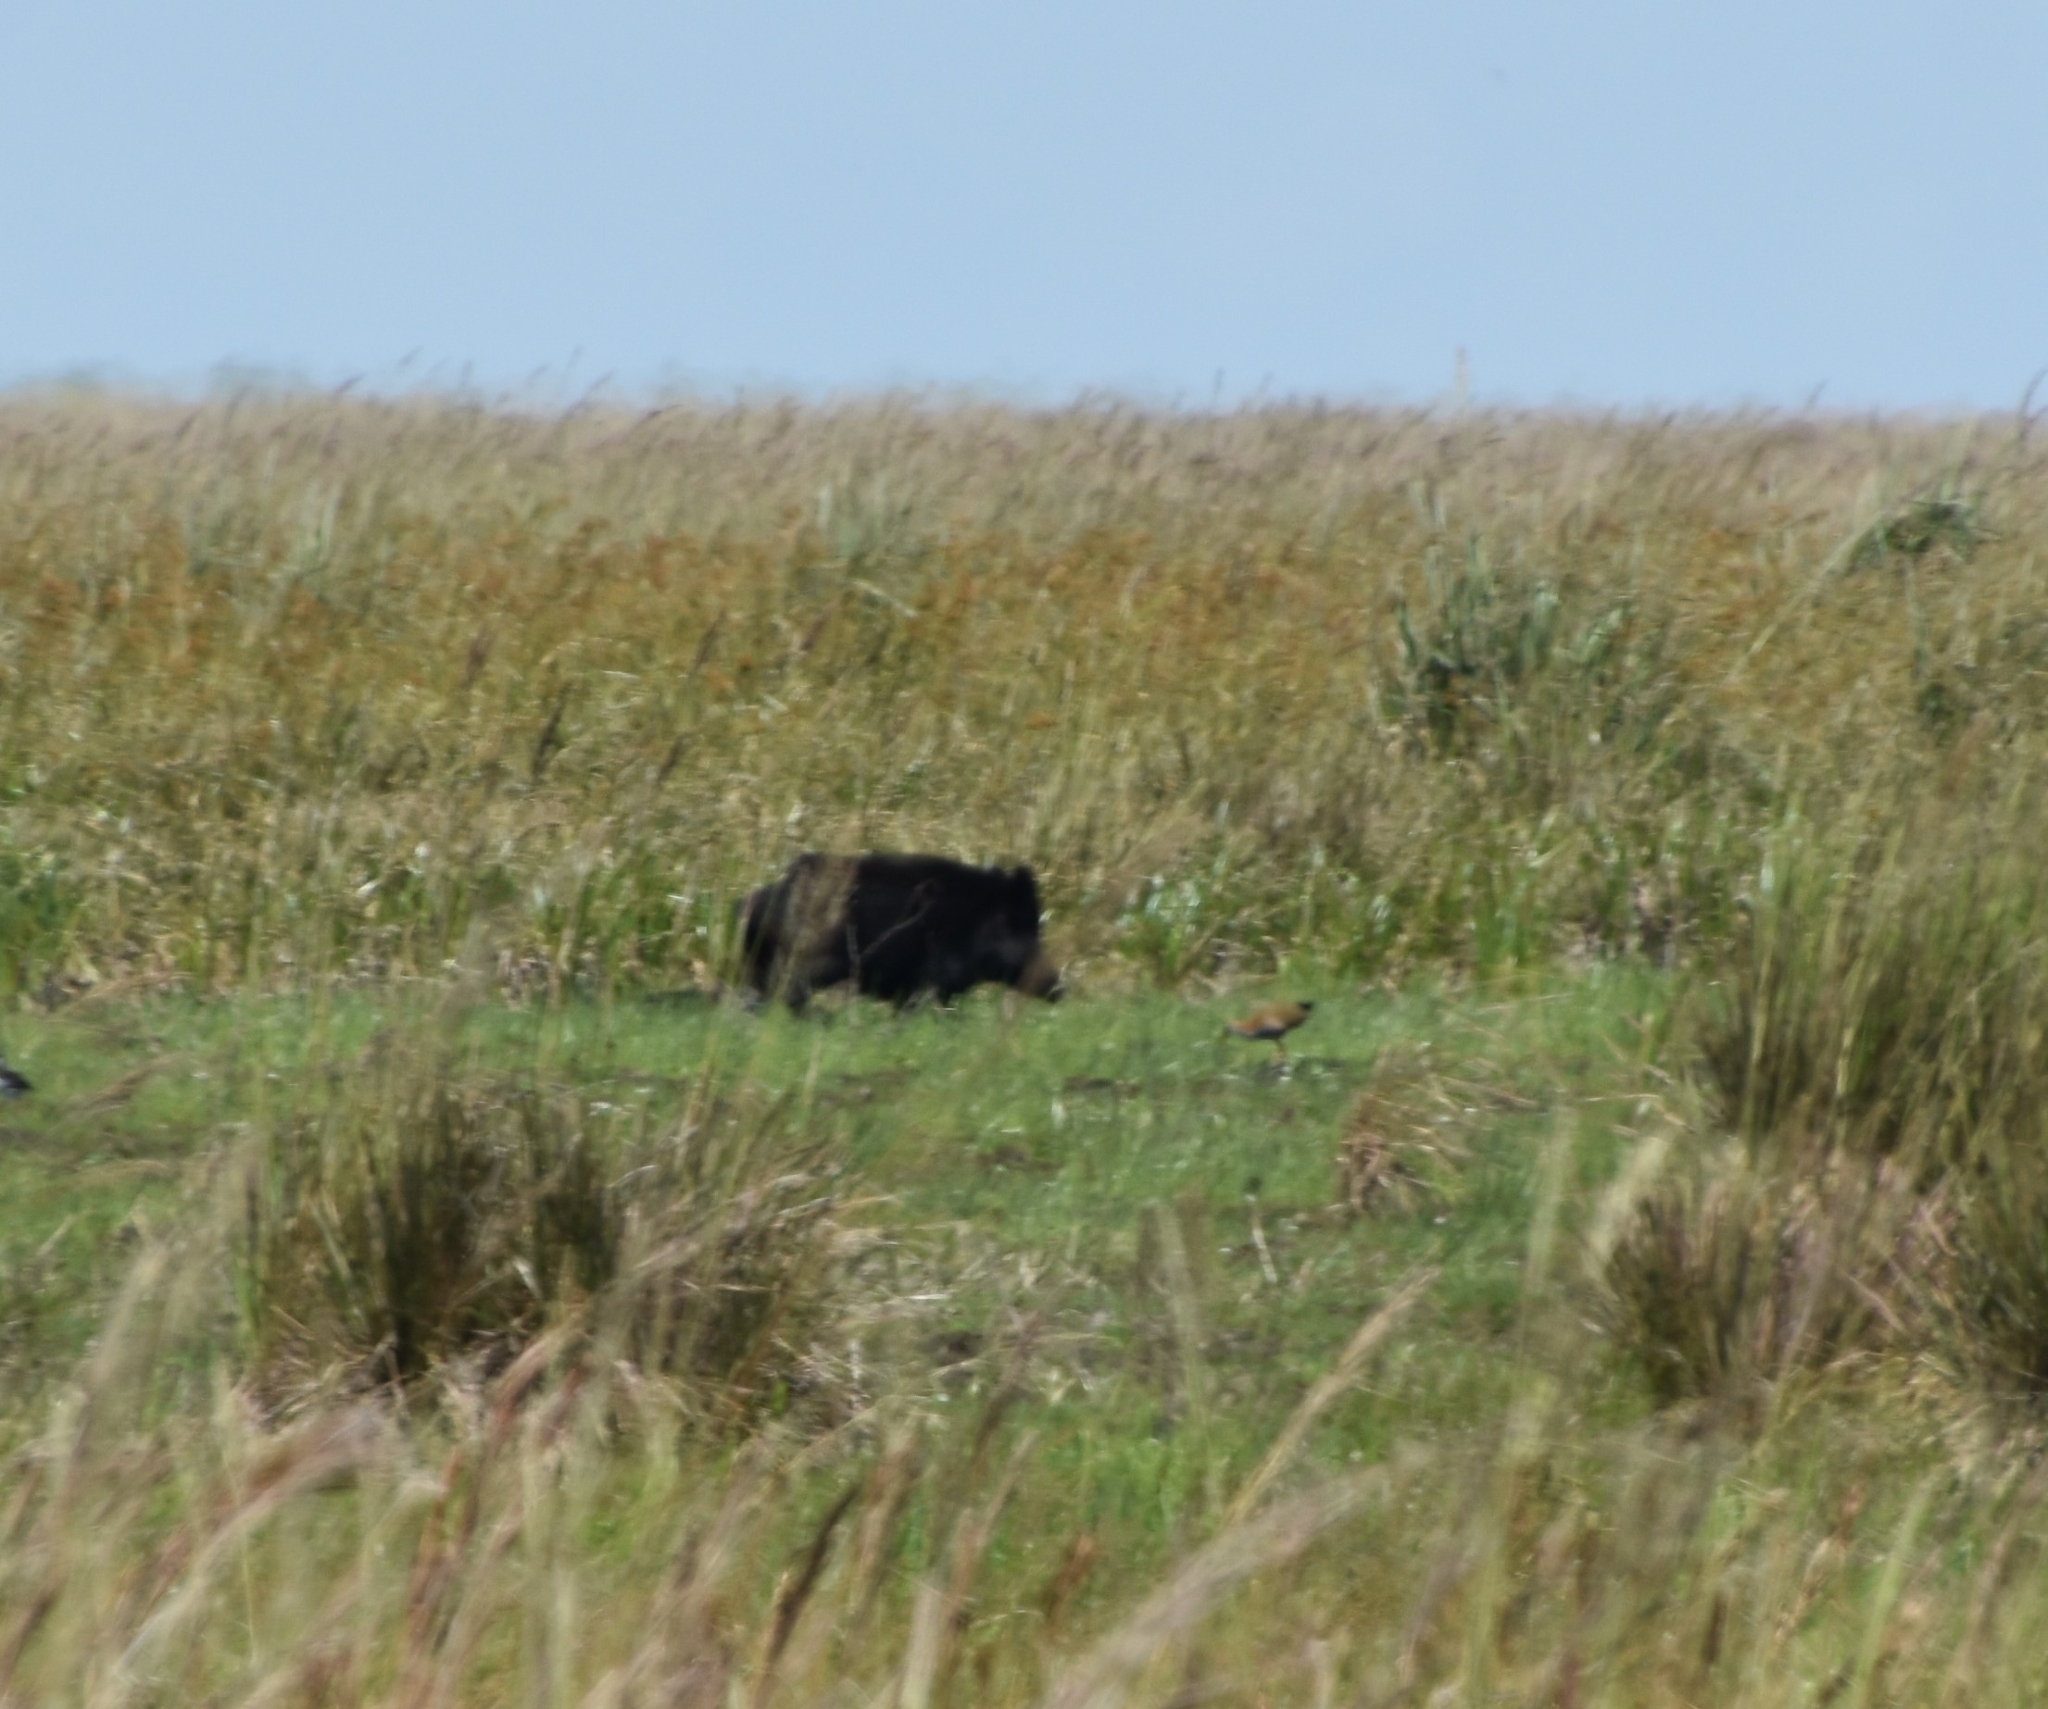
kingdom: Animalia
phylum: Chordata
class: Mammalia
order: Artiodactyla
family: Suidae
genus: Sus
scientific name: Sus scrofa
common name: Wild boar
